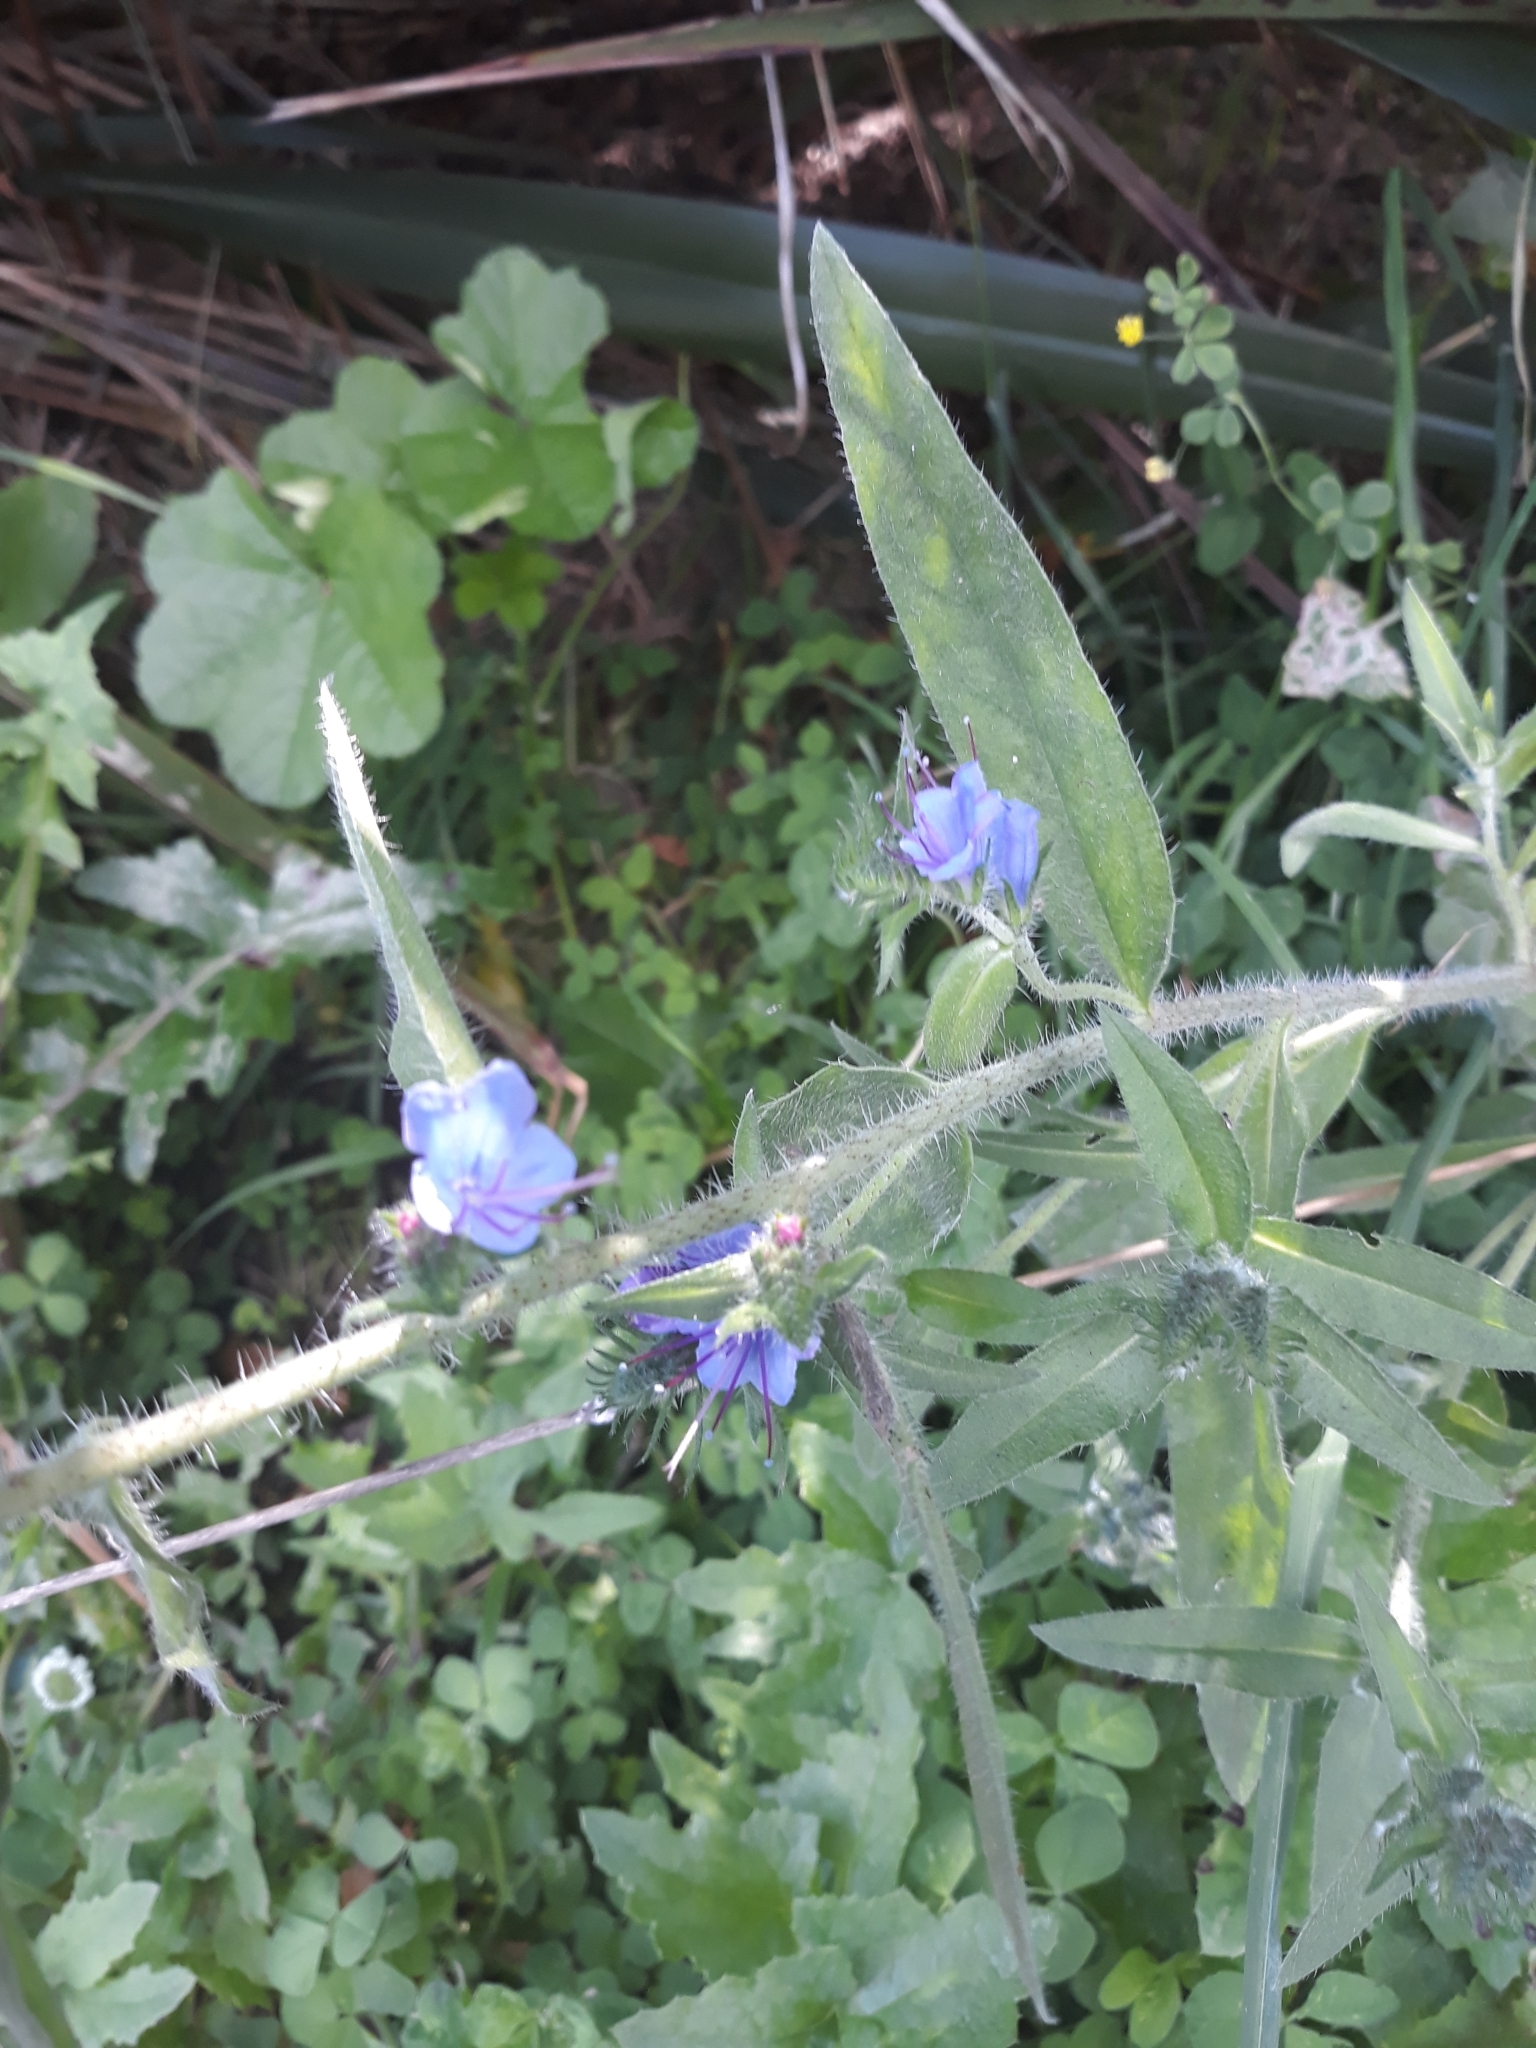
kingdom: Plantae
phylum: Tracheophyta
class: Magnoliopsida
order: Boraginales
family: Boraginaceae
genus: Echium
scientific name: Echium vulgare
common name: Common viper's bugloss
